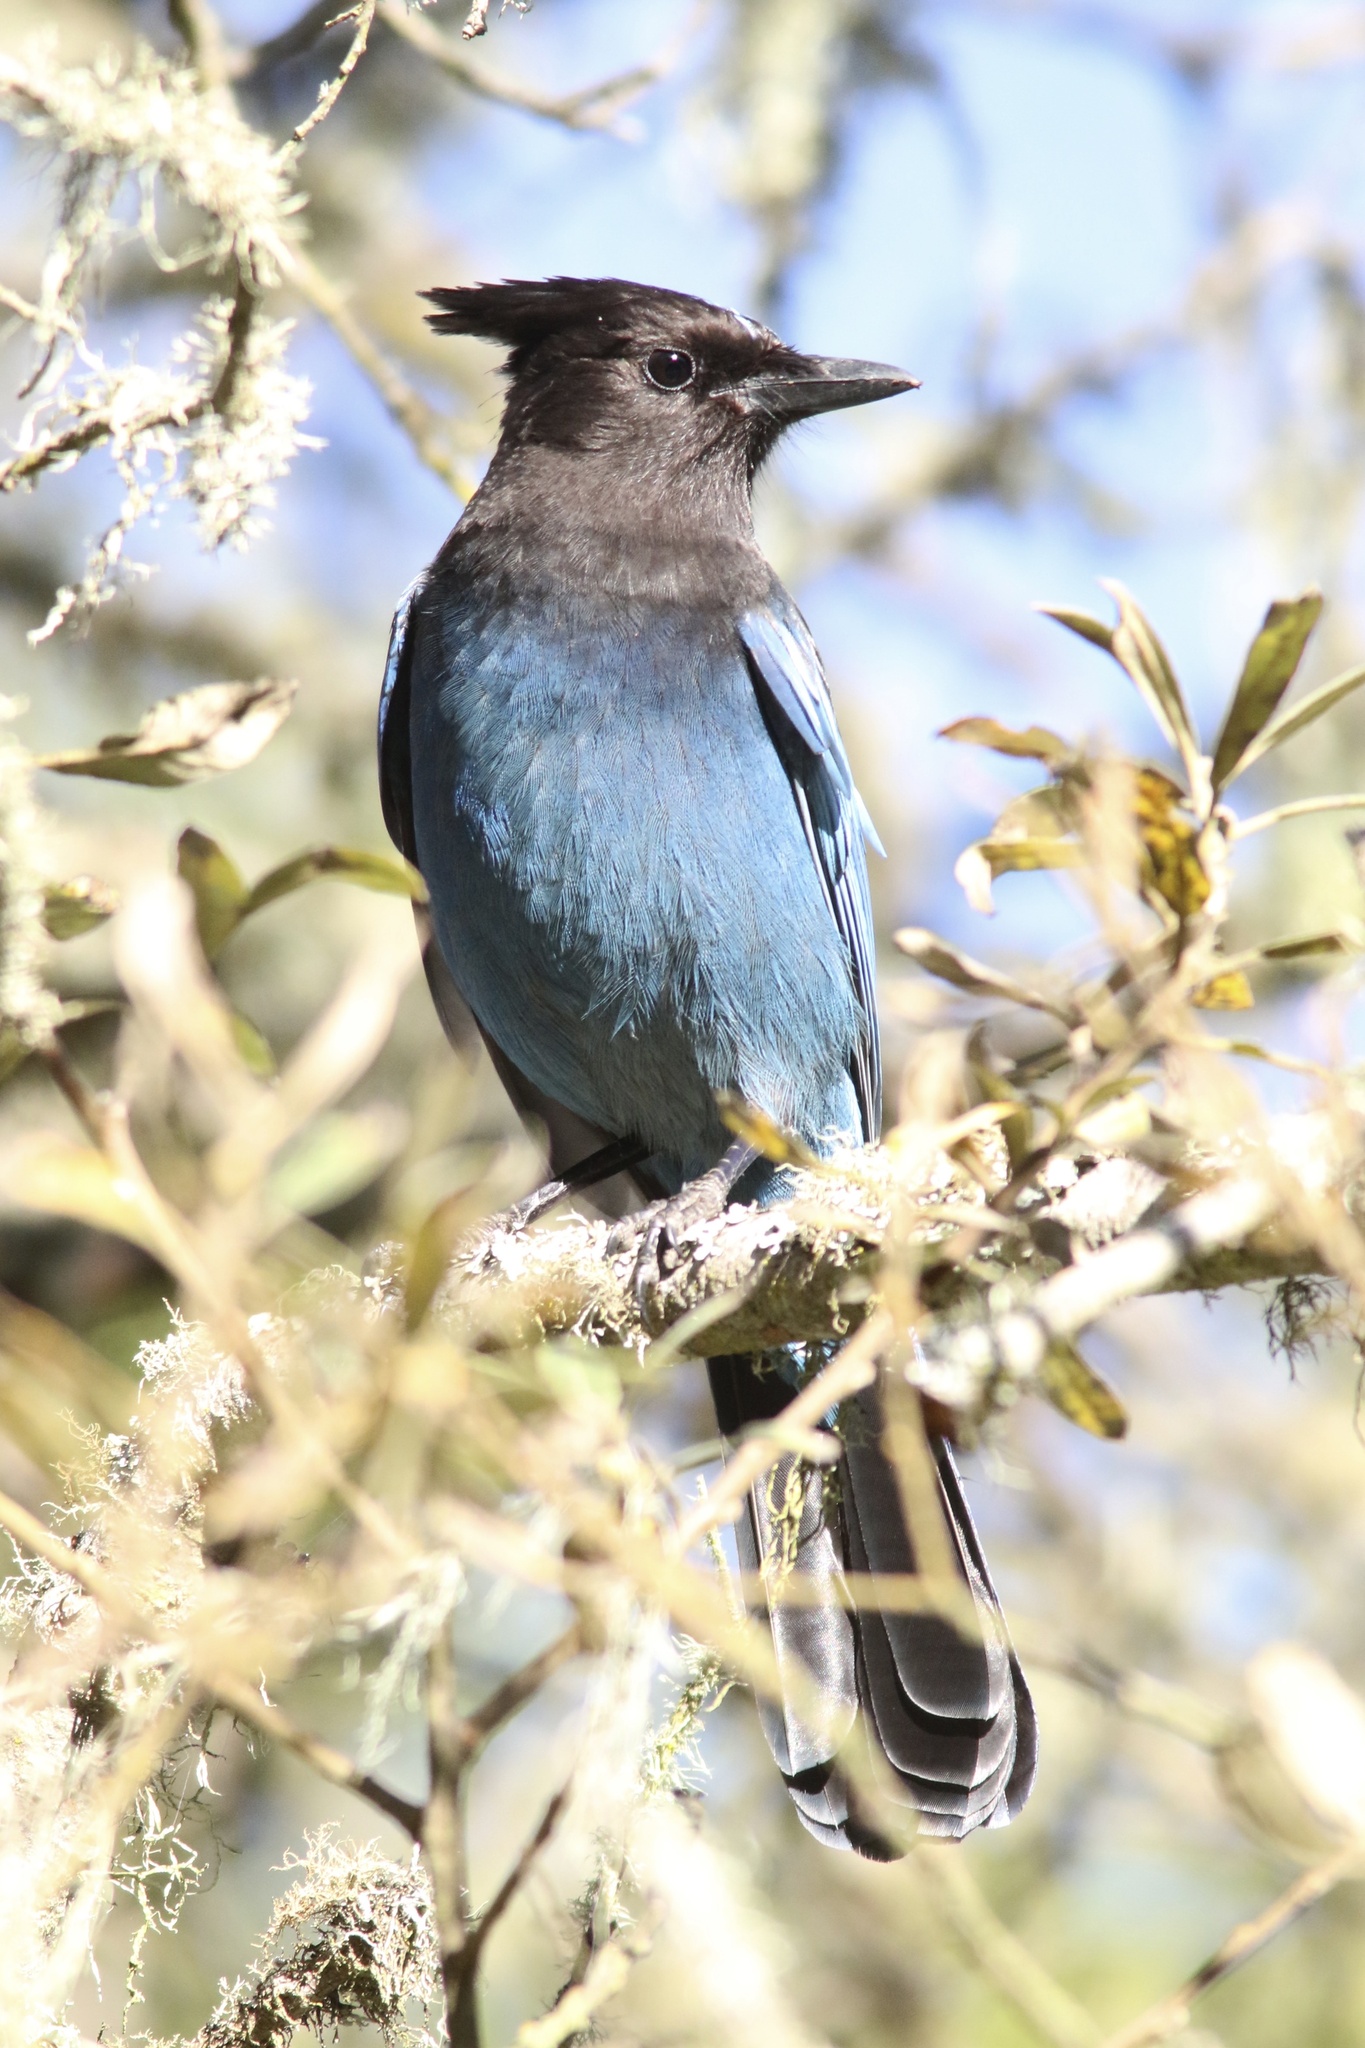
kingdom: Animalia
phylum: Chordata
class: Aves
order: Passeriformes
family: Corvidae
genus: Cyanocitta
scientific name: Cyanocitta stelleri
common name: Steller's jay
